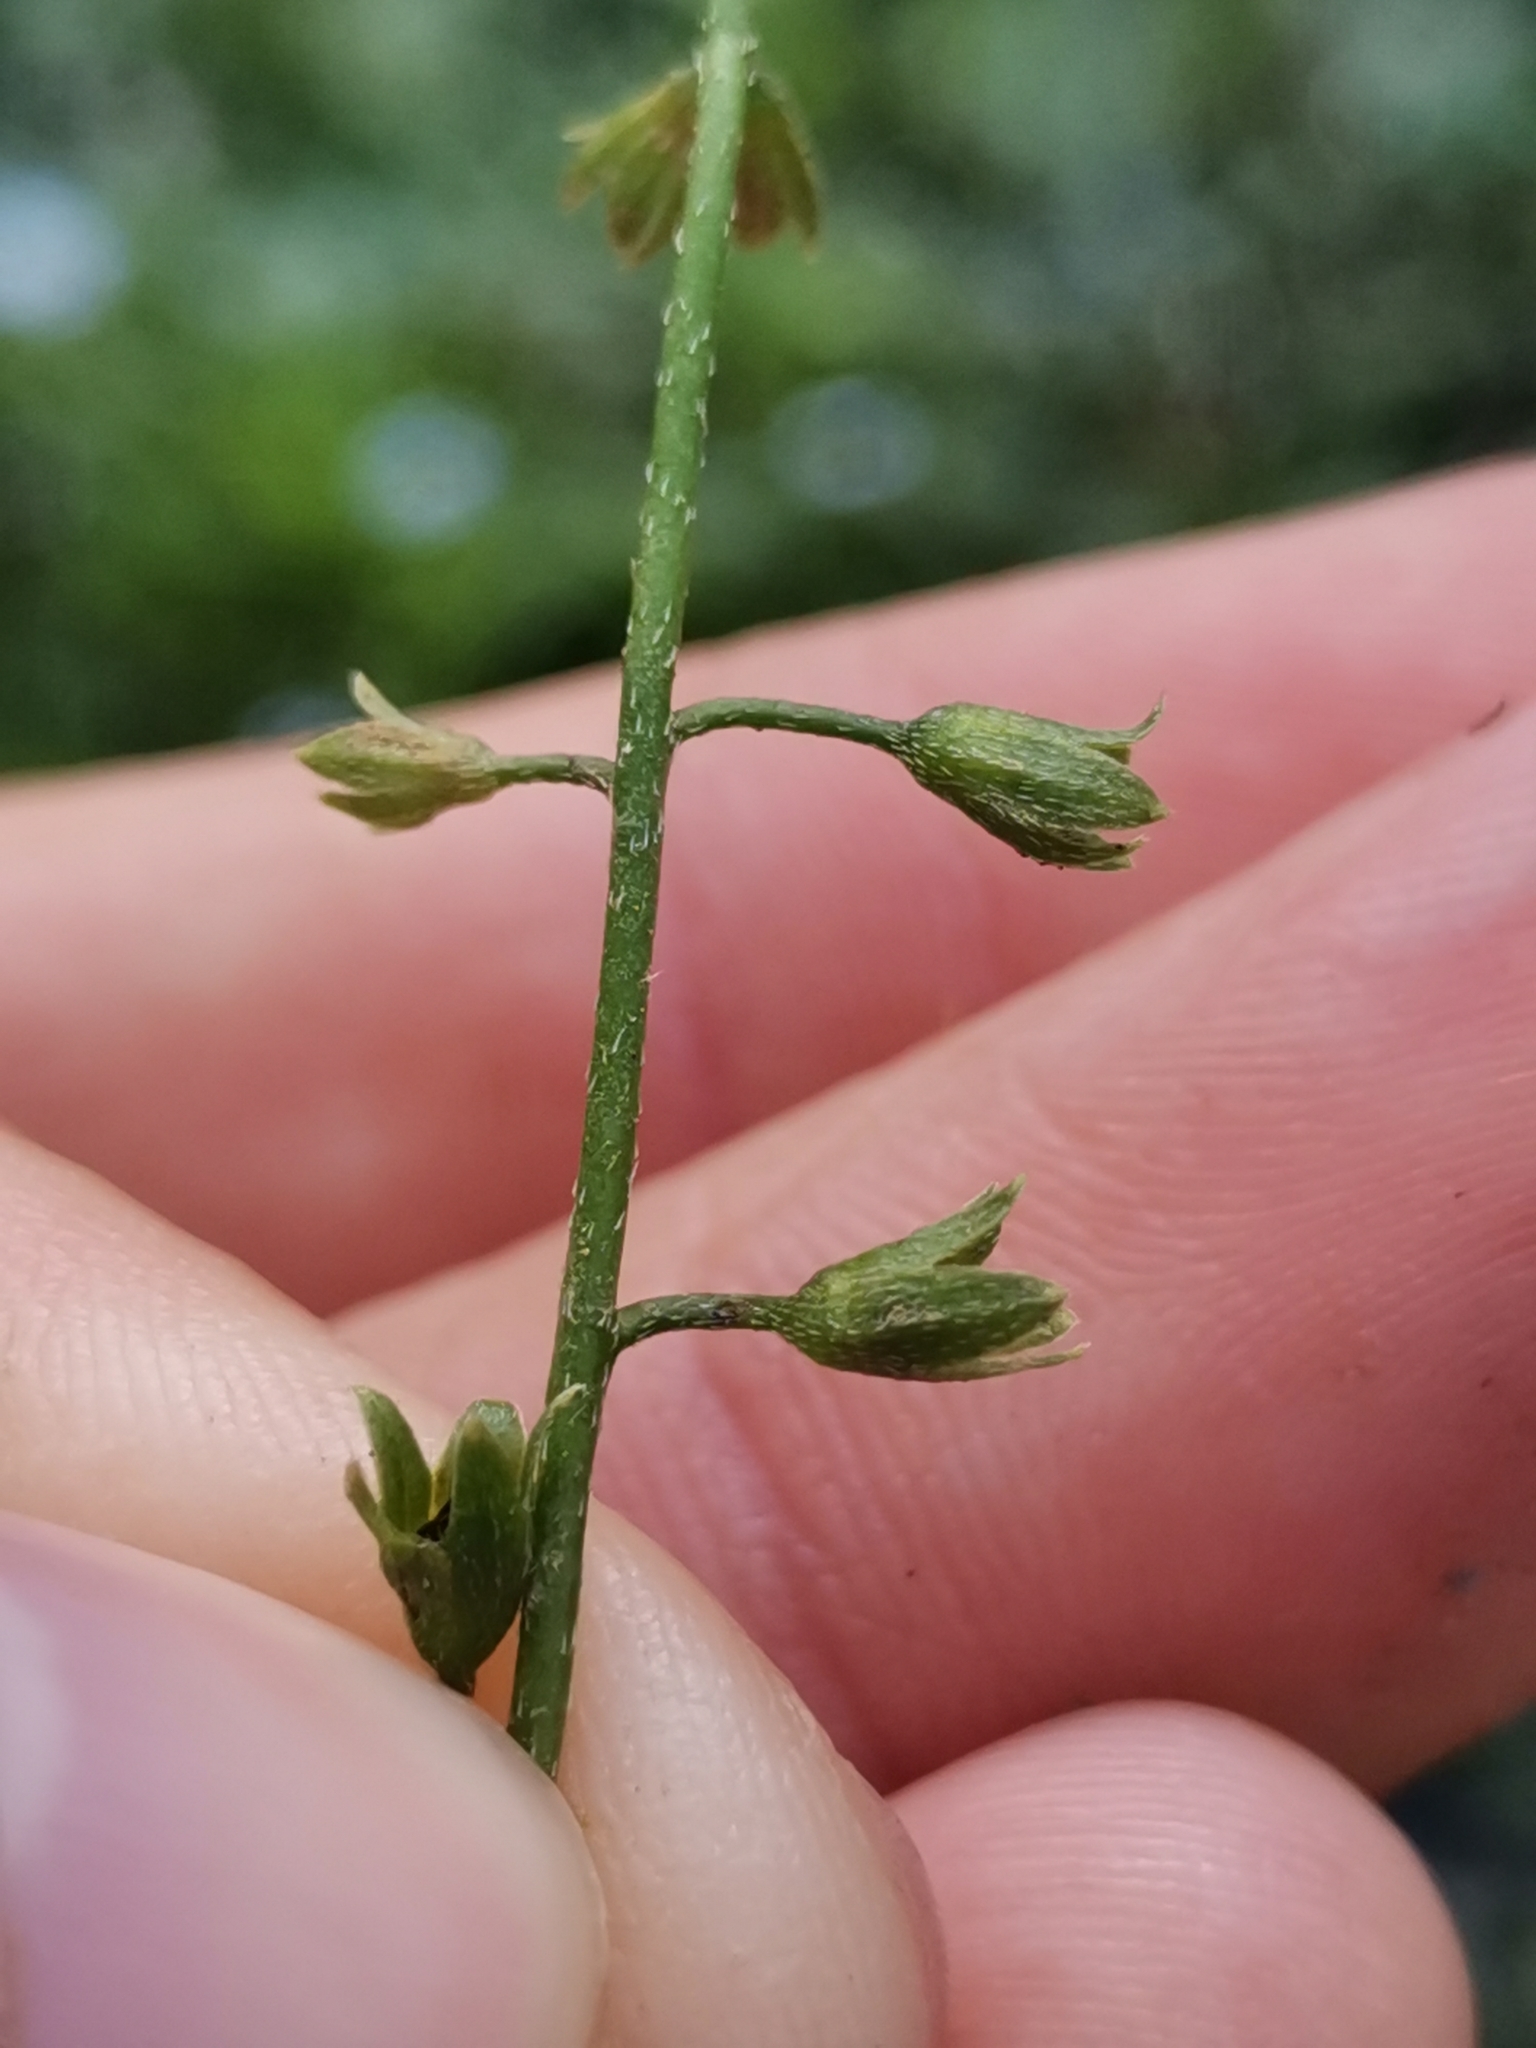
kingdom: Plantae
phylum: Tracheophyta
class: Magnoliopsida
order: Boraginales
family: Boraginaceae
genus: Myosotis
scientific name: Myosotis scorpioides
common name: Water forget-me-not
